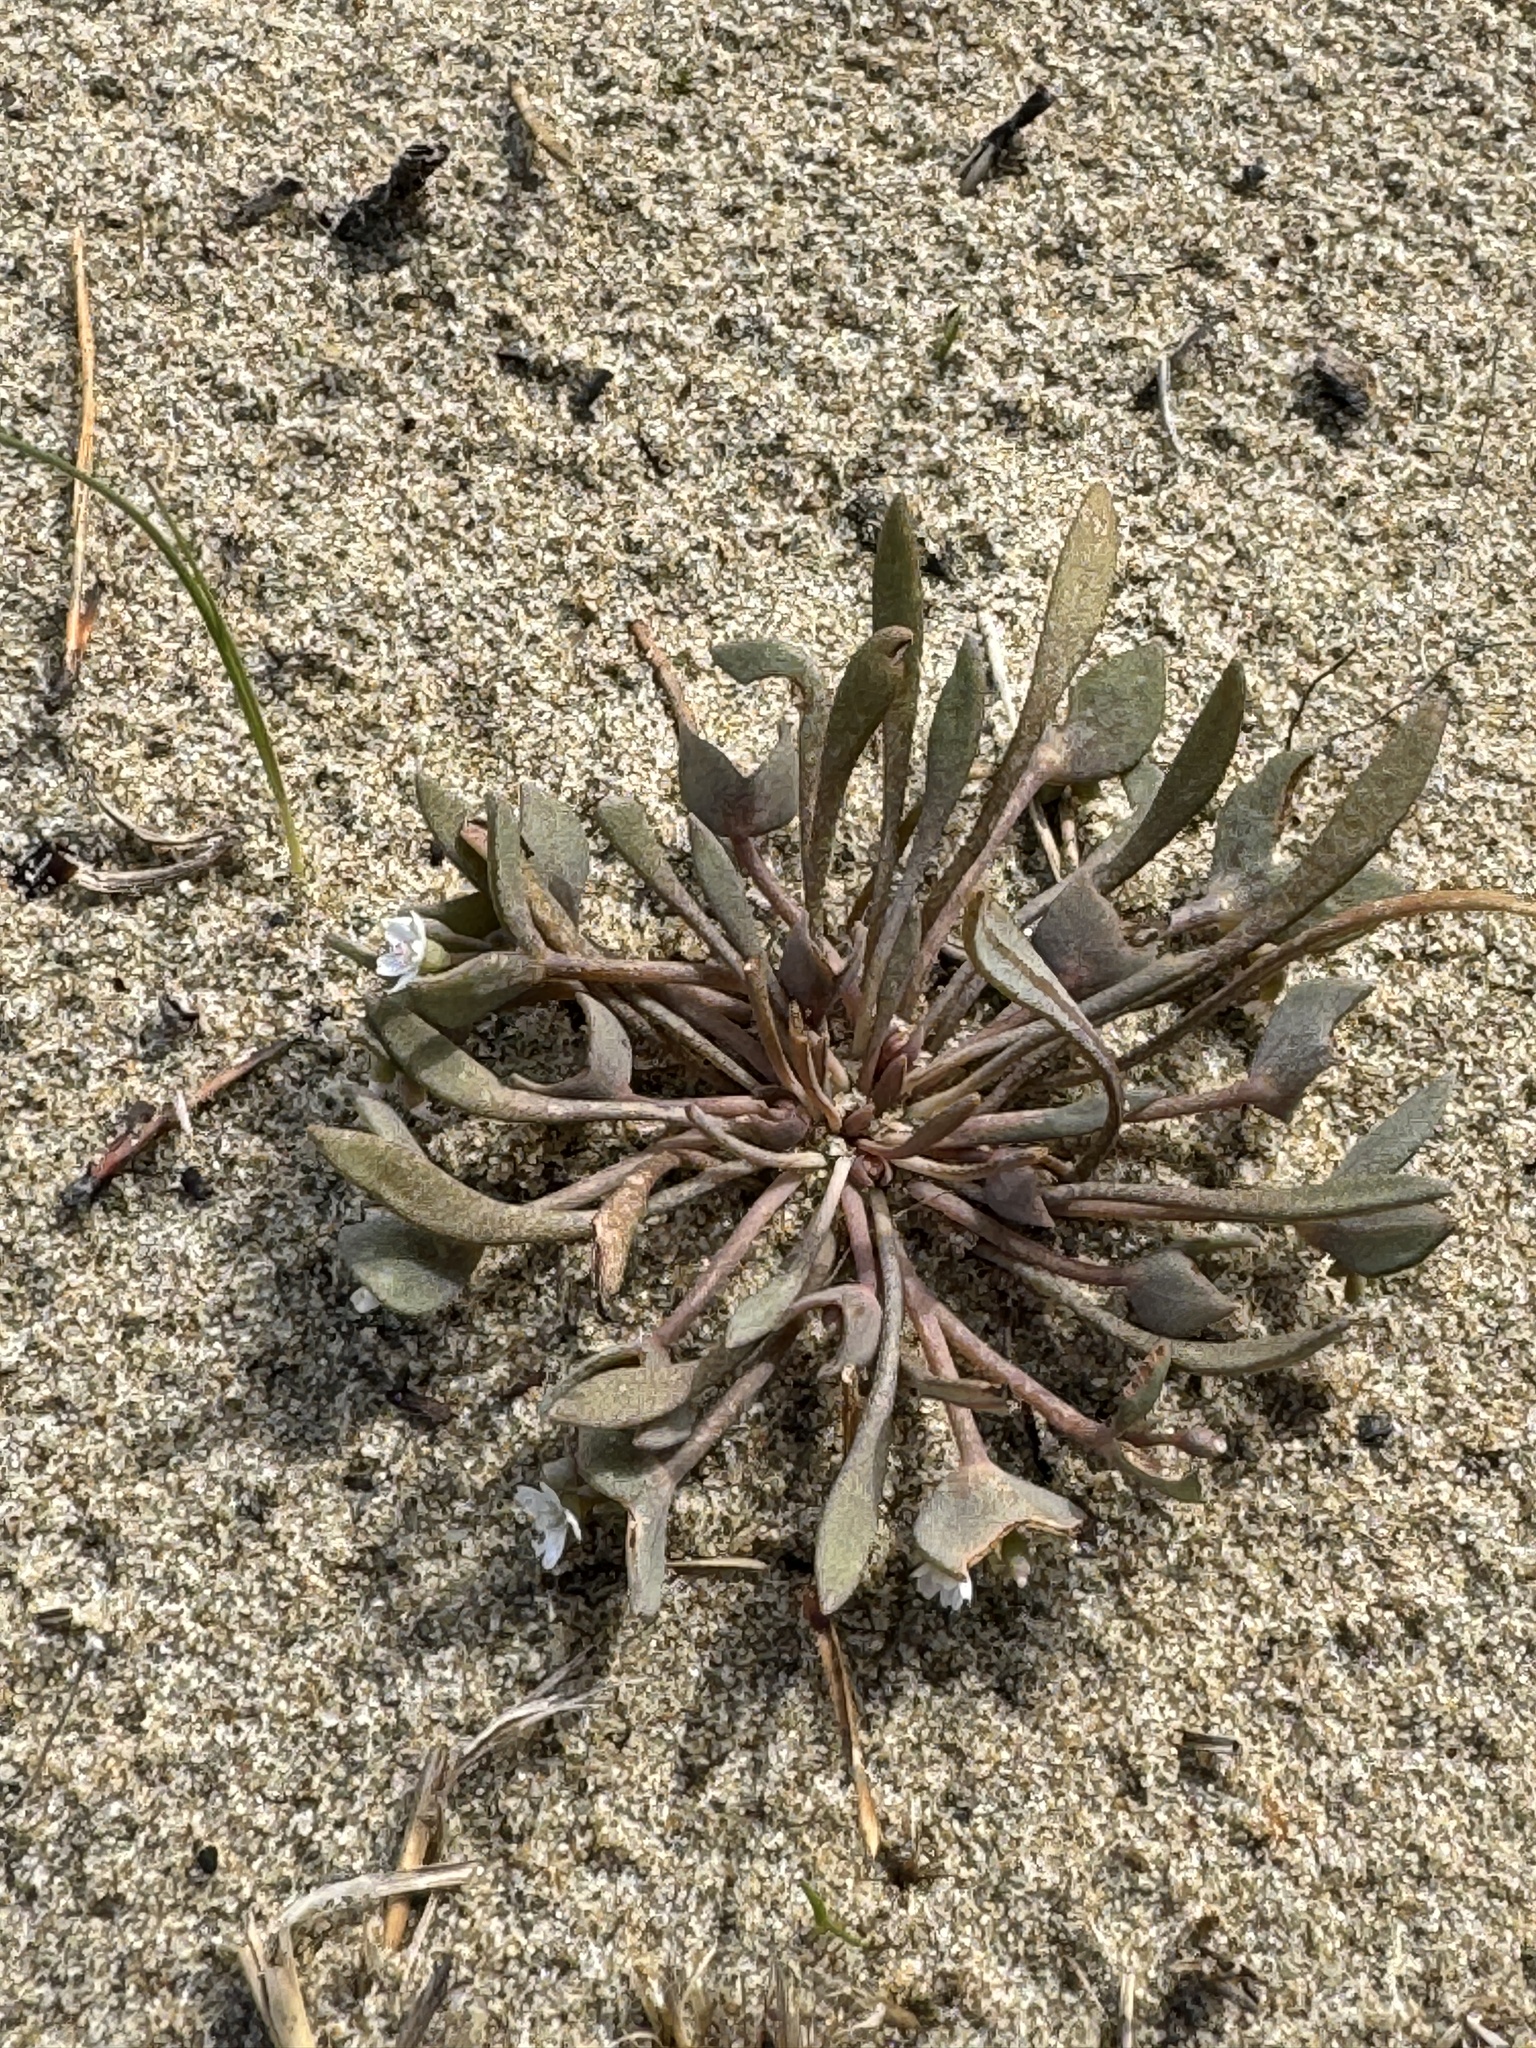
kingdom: Plantae
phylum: Tracheophyta
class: Magnoliopsida
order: Caryophyllales
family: Montiaceae
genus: Claytonia
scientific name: Claytonia exigua
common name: Pale spring beauty
